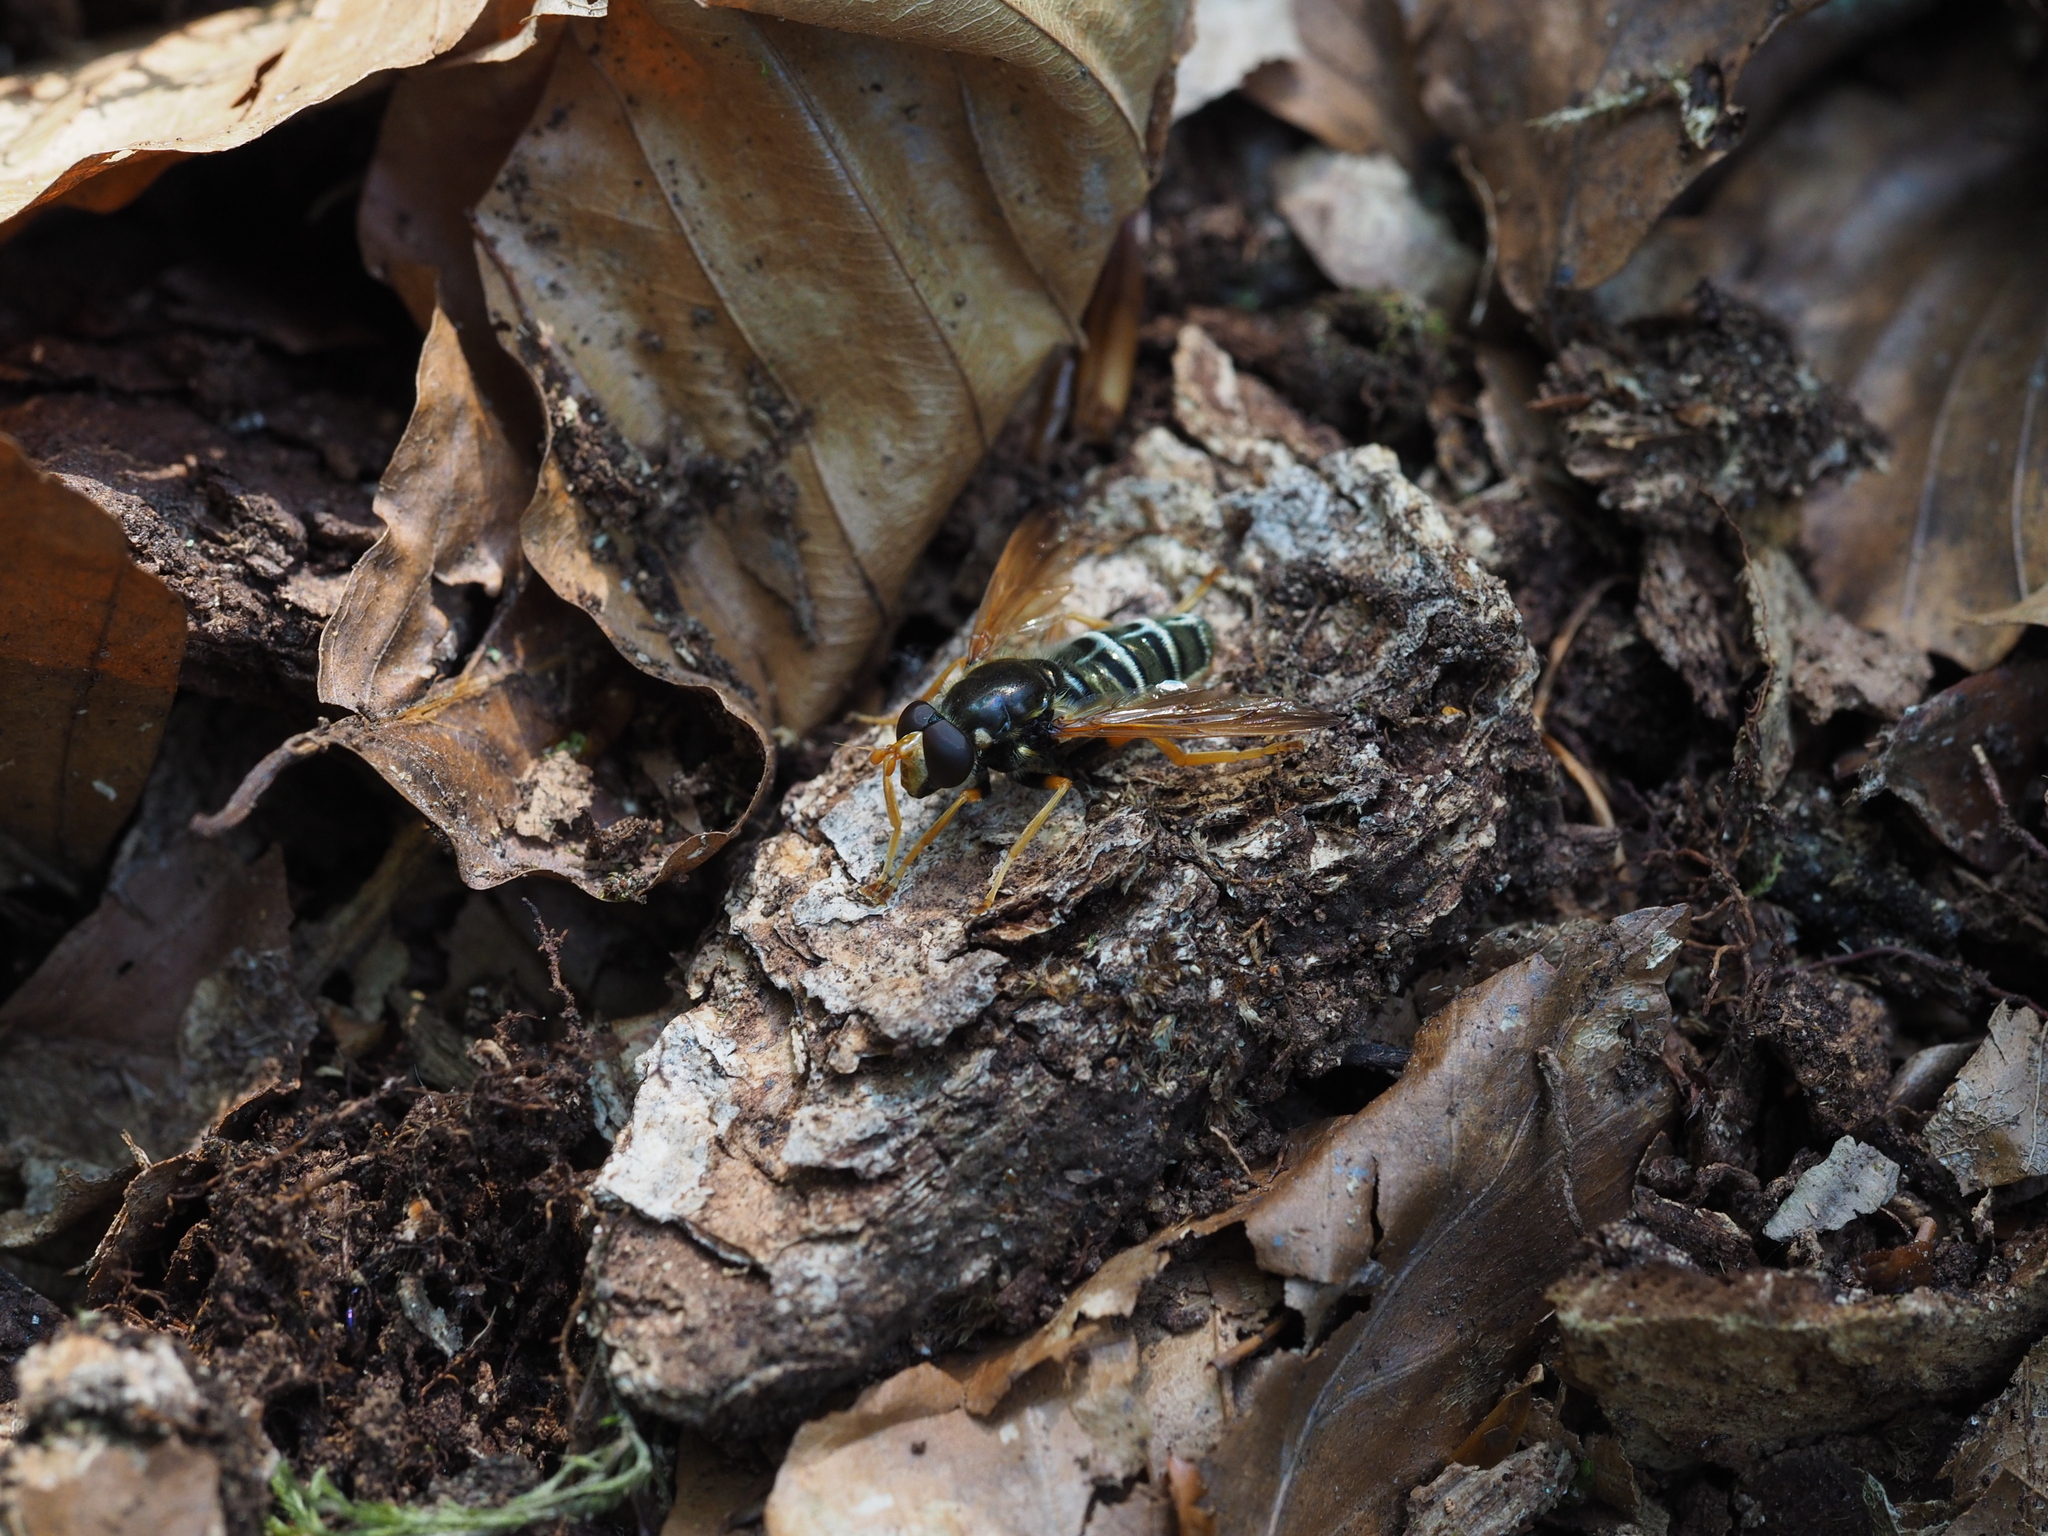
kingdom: Animalia
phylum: Arthropoda
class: Insecta
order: Diptera
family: Syrphidae
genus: Caliprobola
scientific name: Caliprobola speciosa
